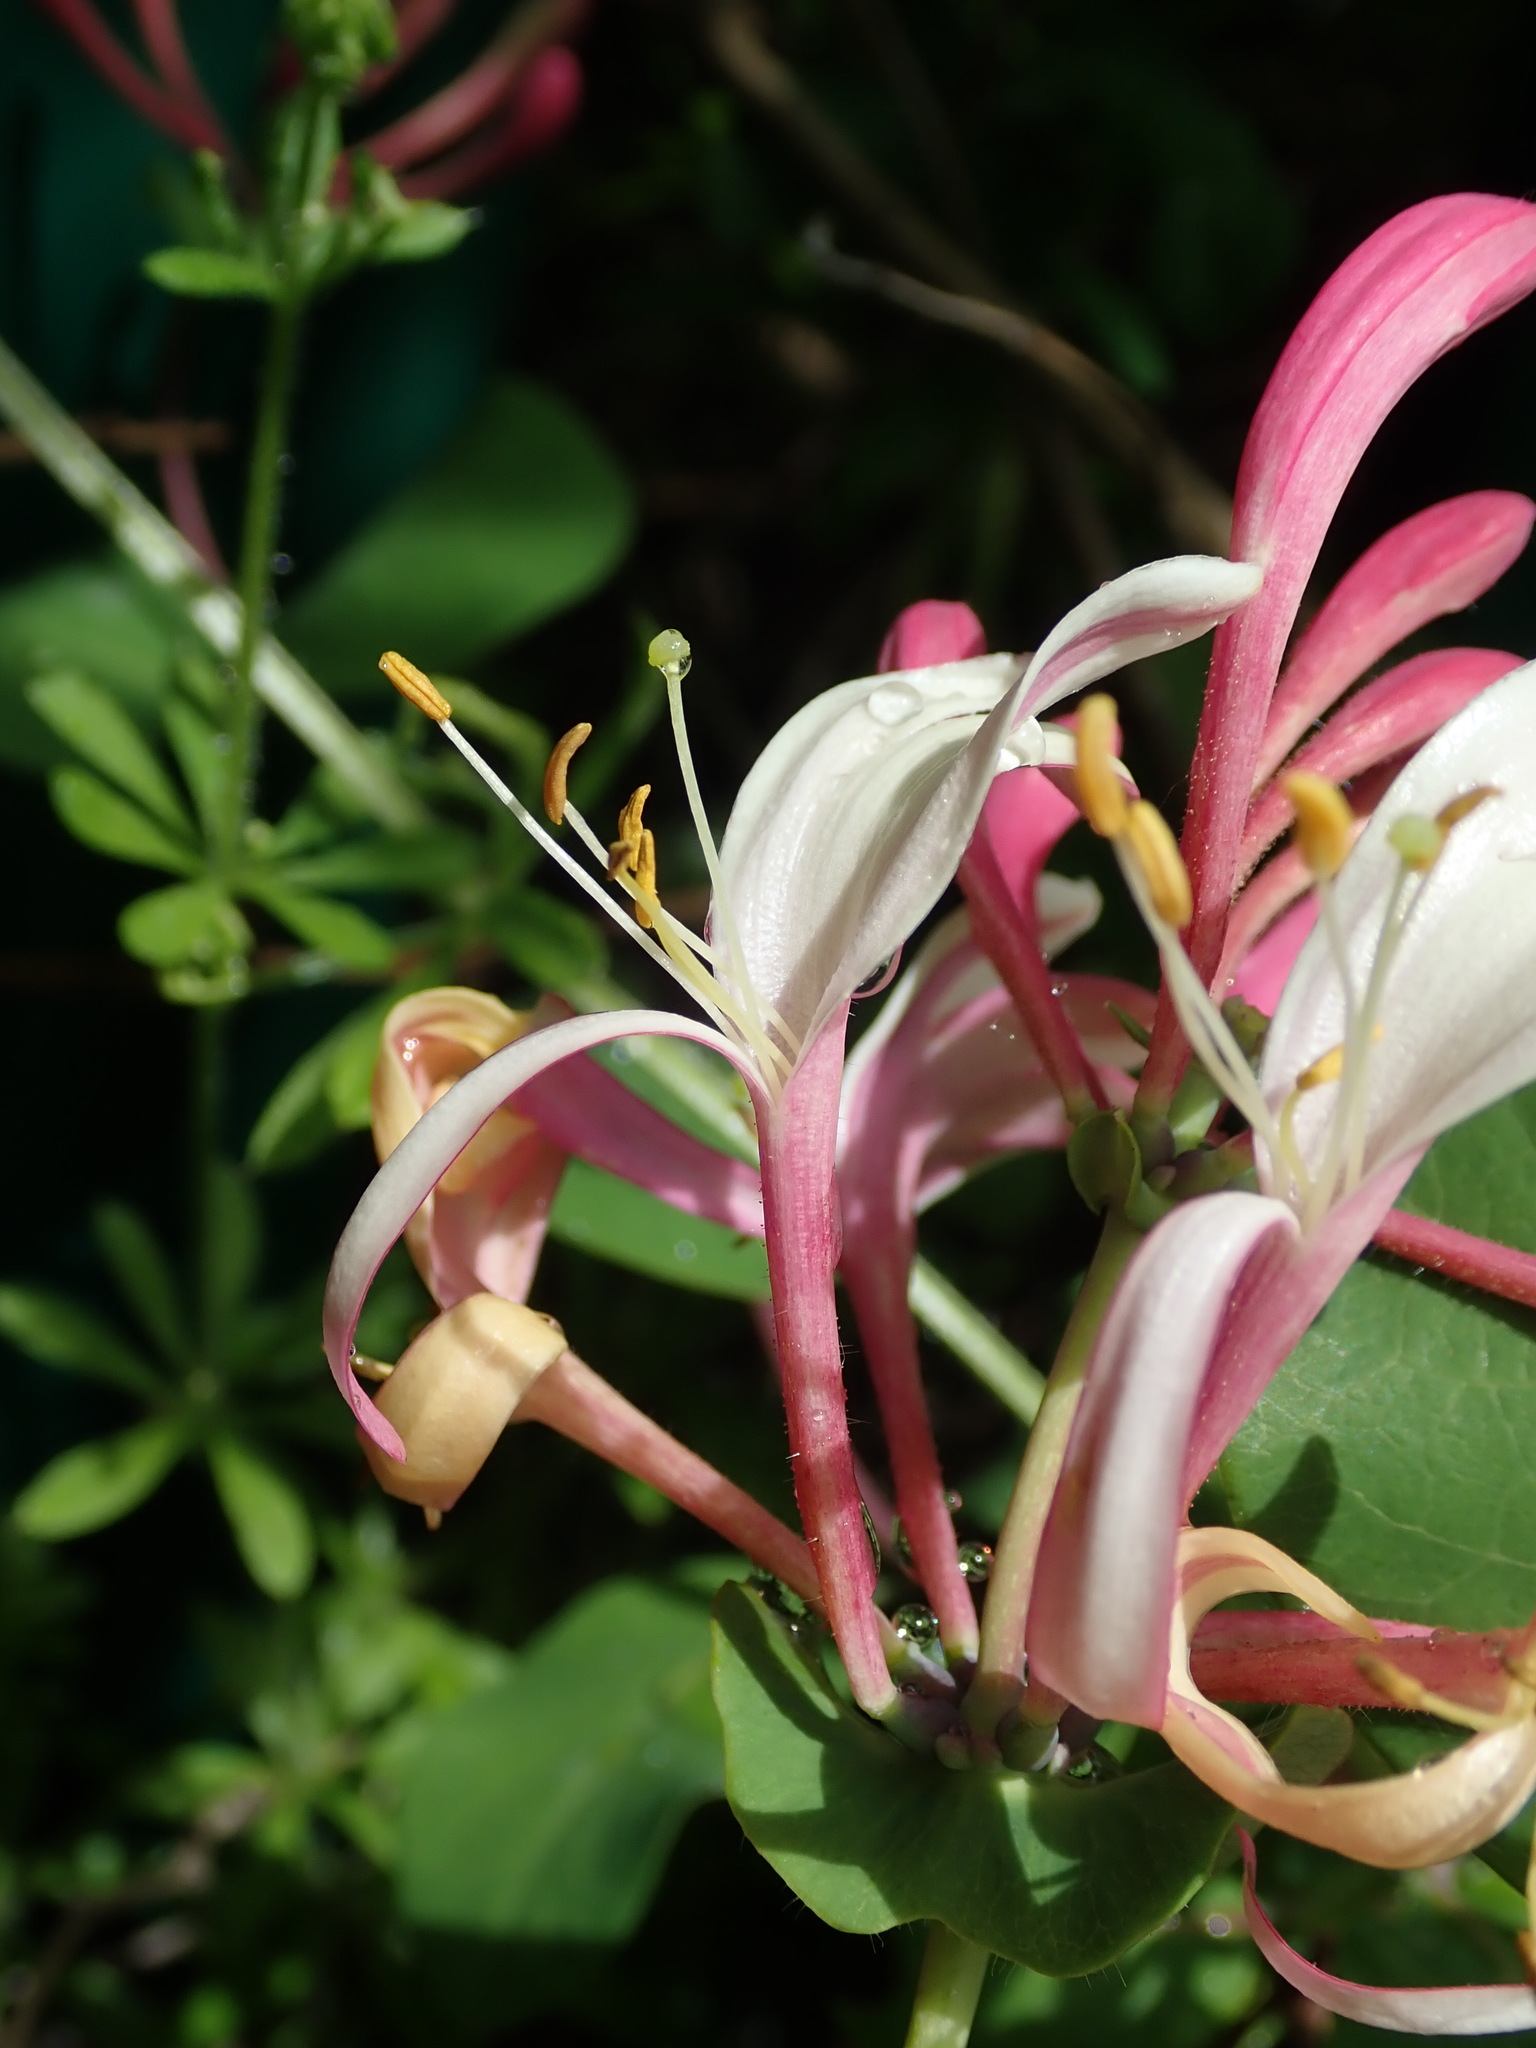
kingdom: Plantae
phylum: Tracheophyta
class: Magnoliopsida
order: Dipsacales
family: Caprifoliaceae
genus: Lonicera
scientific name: Lonicera caprifolium
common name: Perfoliate honeysuckle
